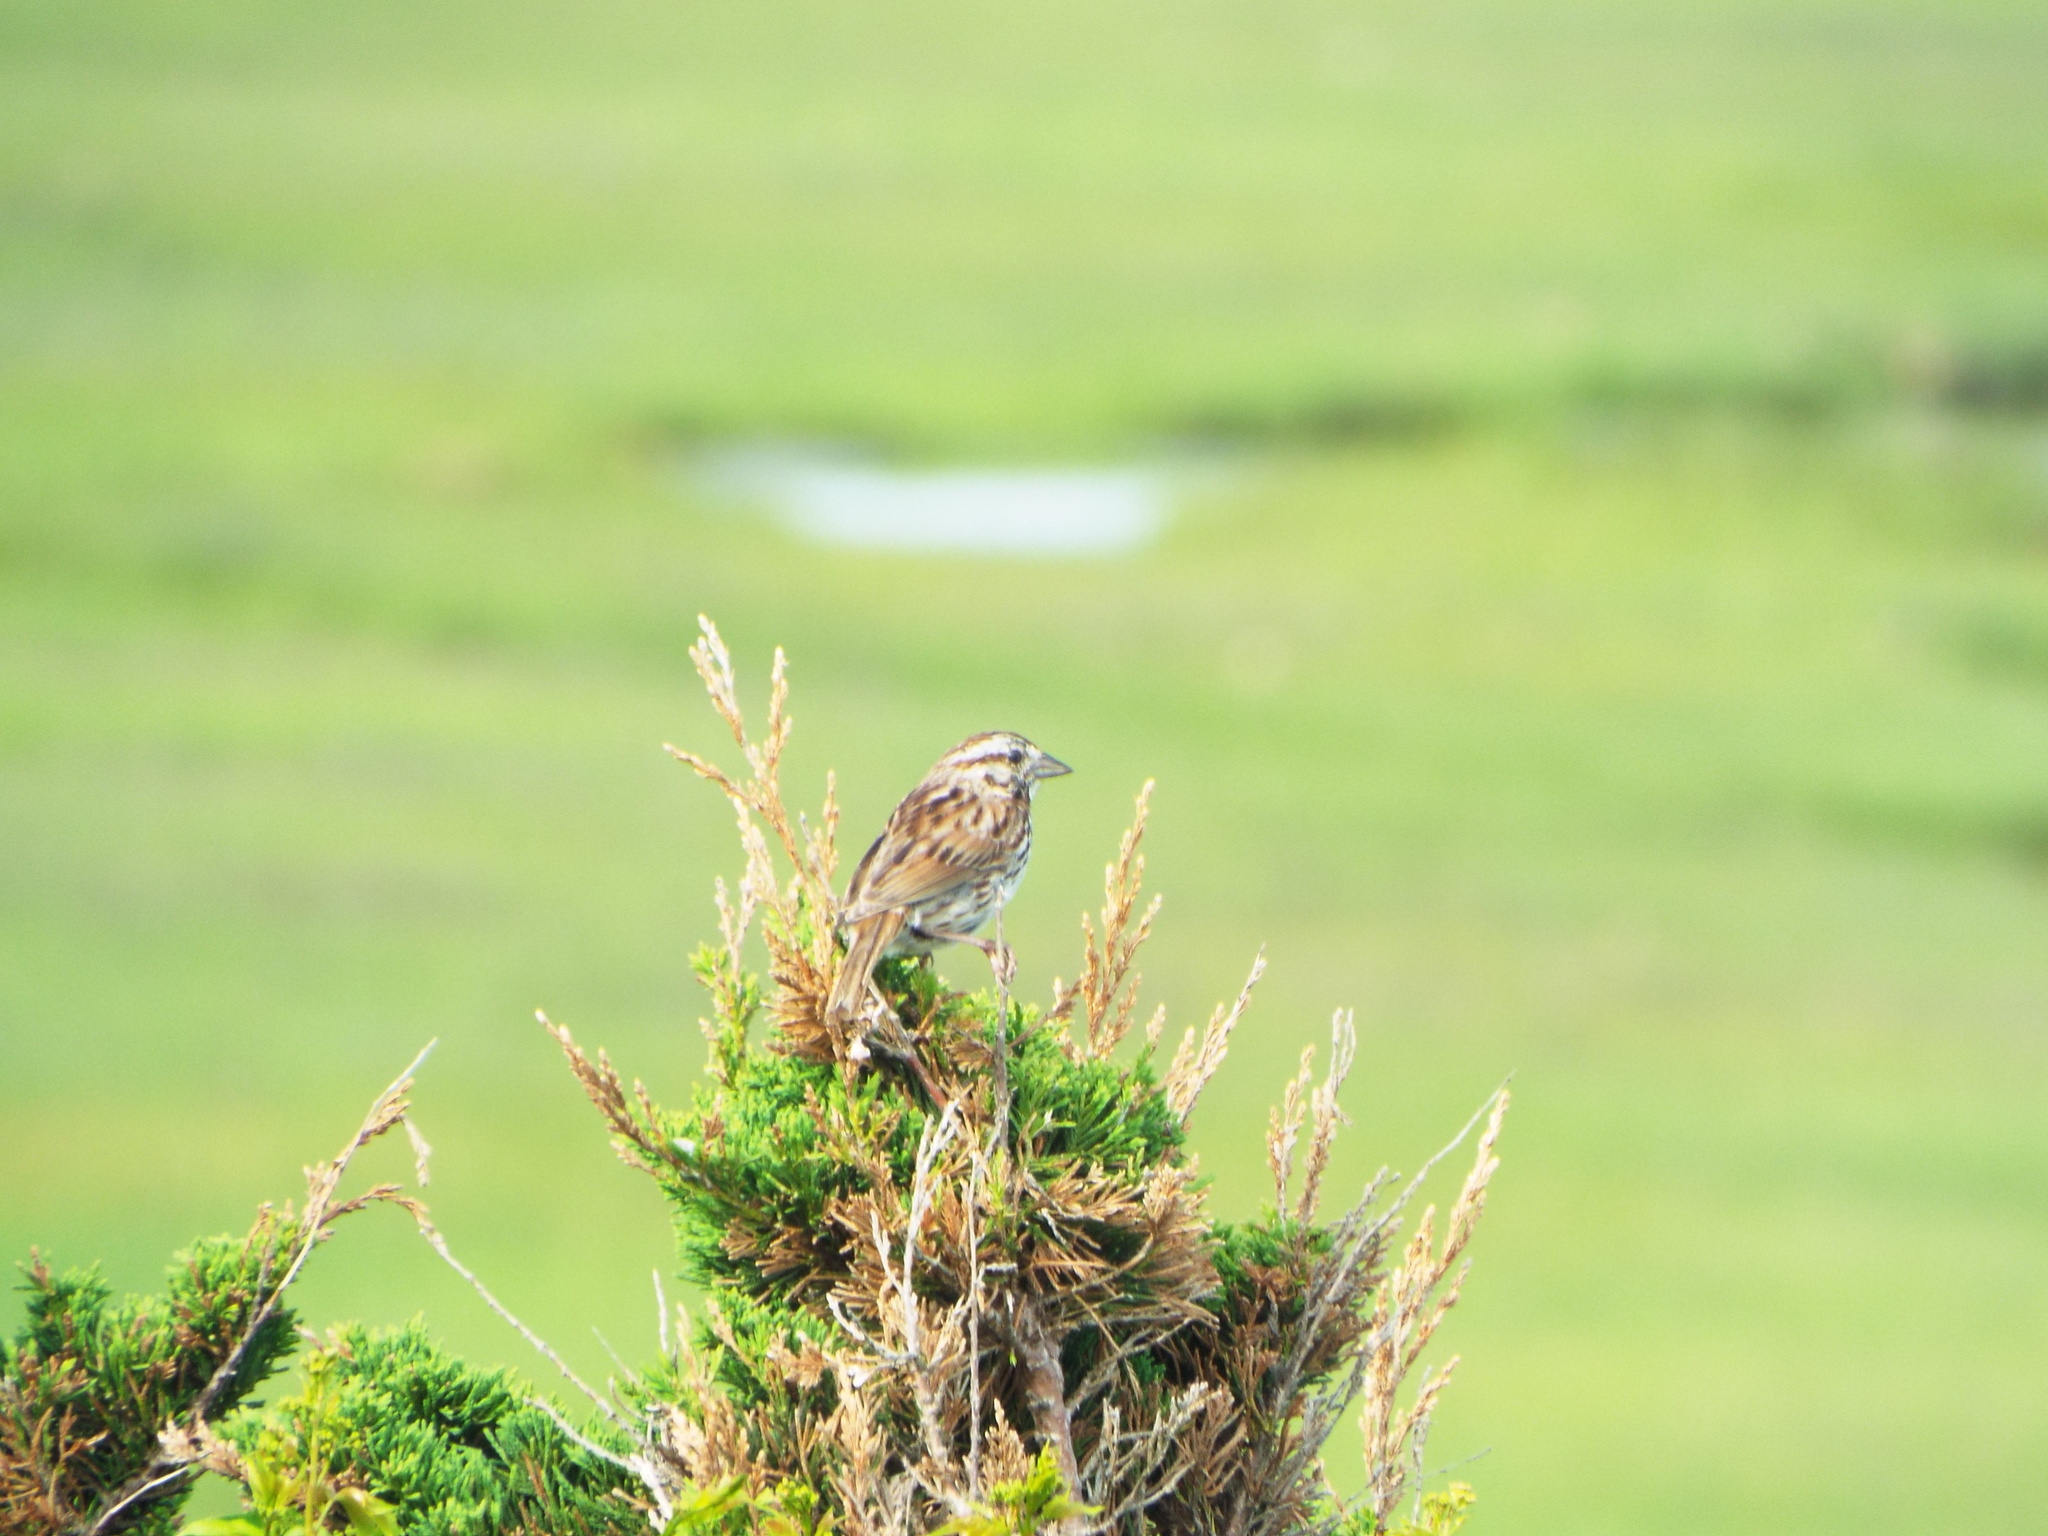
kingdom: Animalia
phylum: Chordata
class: Aves
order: Passeriformes
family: Passerellidae
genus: Melospiza
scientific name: Melospiza melodia
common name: Song sparrow
